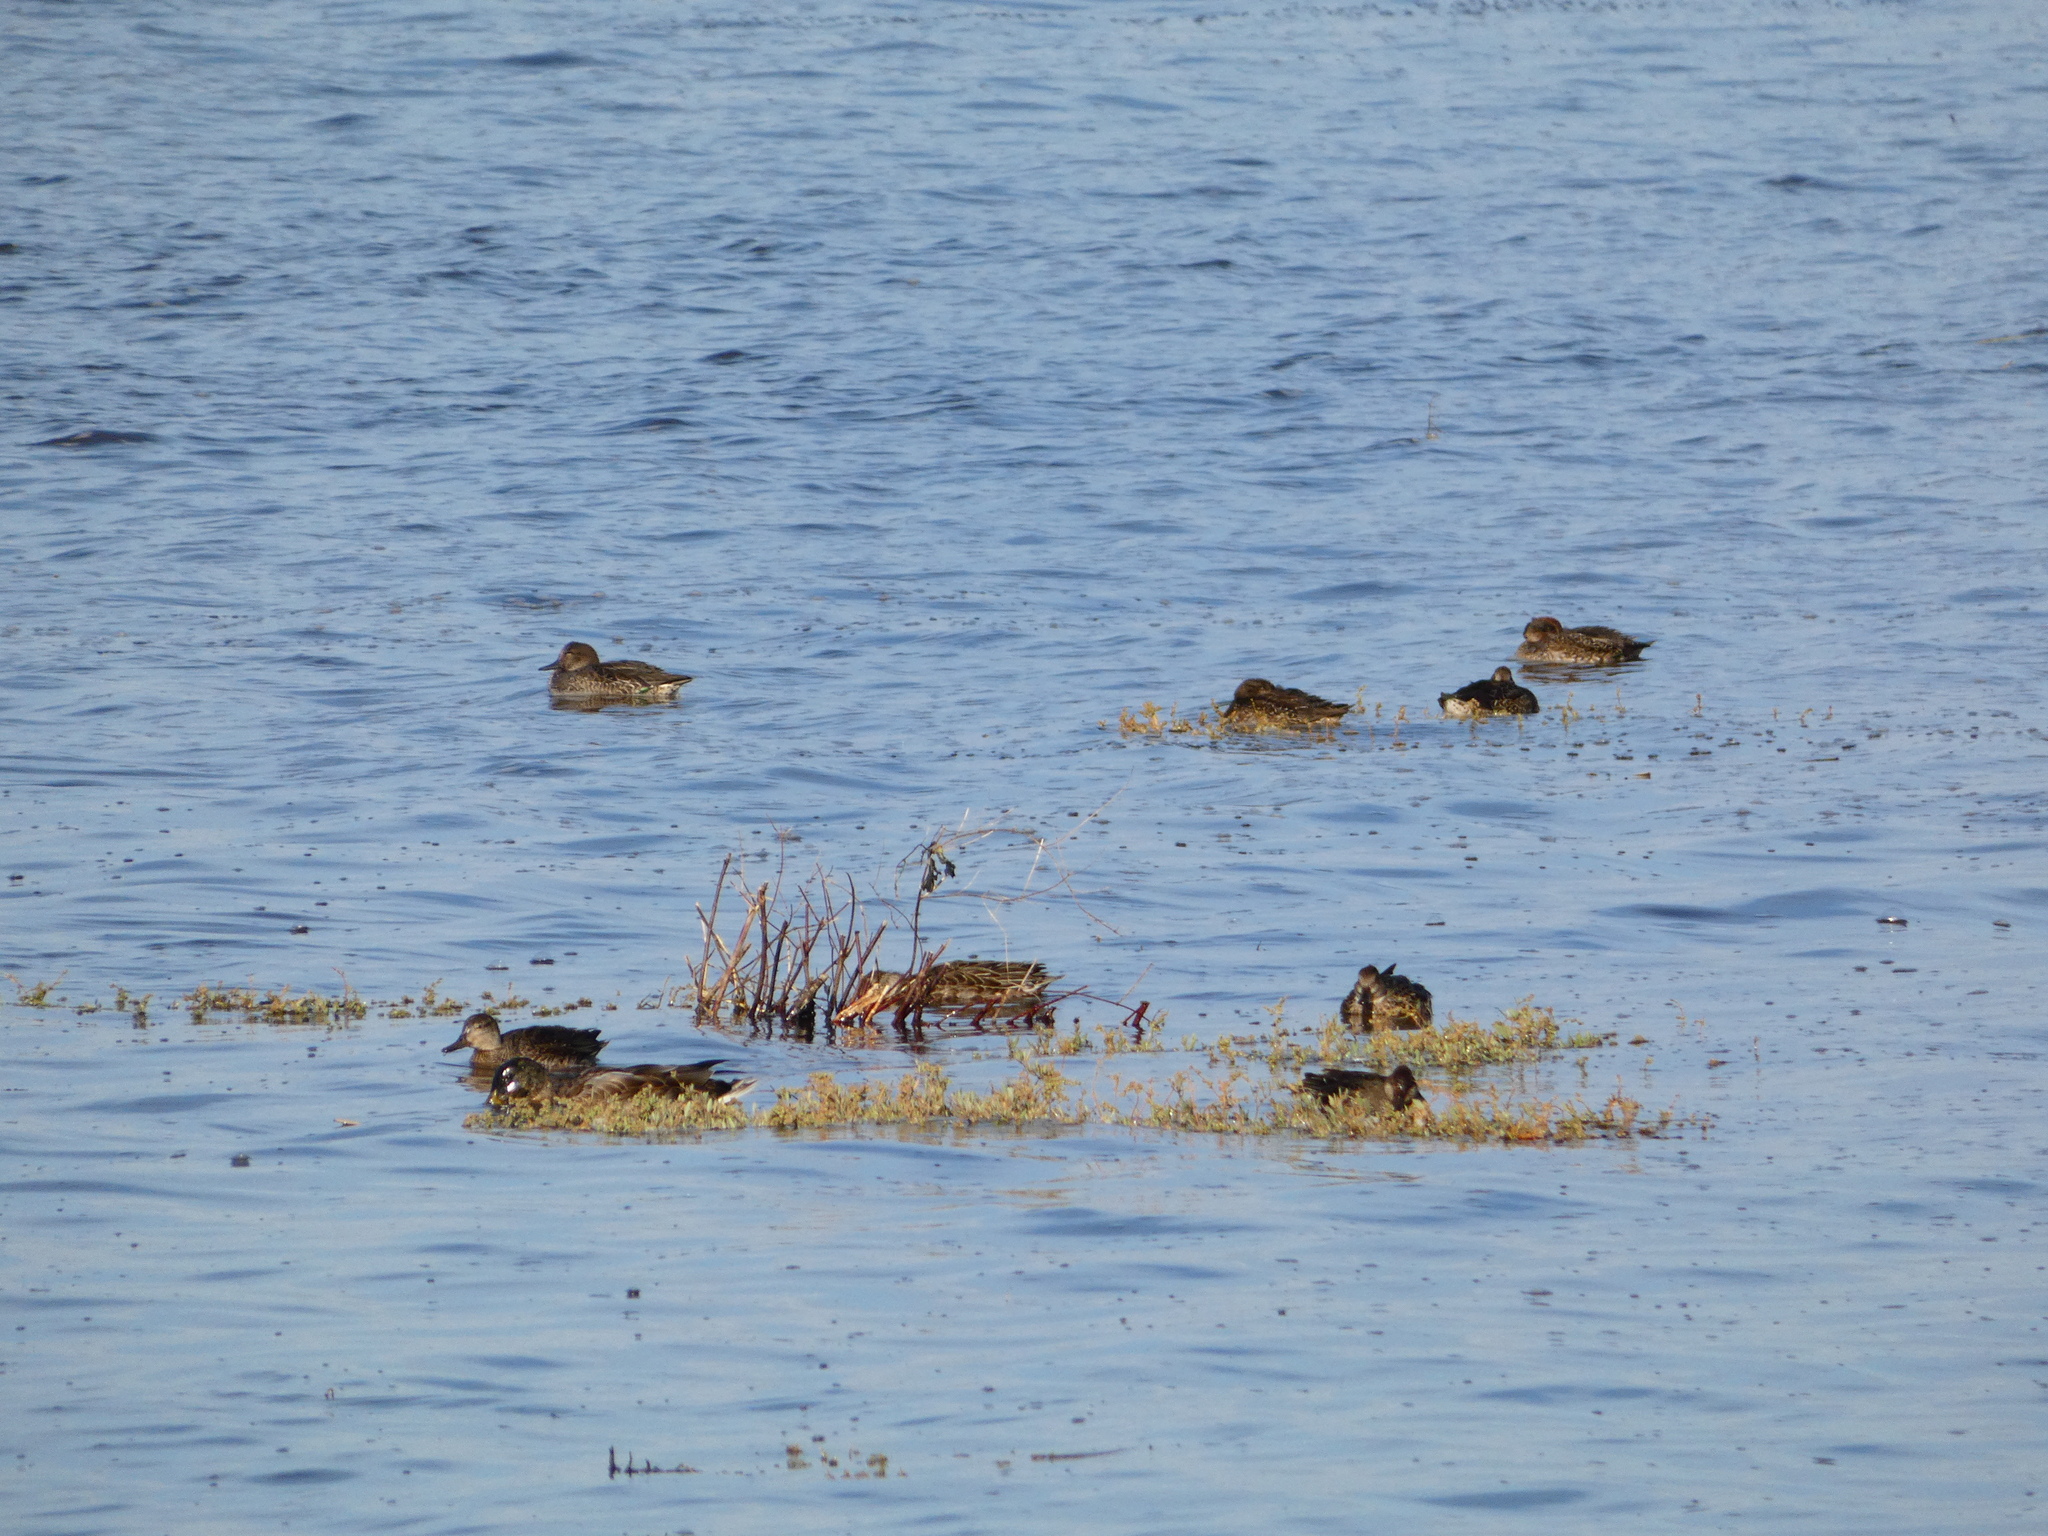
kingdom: Animalia
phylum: Chordata
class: Aves
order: Anseriformes
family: Anatidae
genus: Anas
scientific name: Anas crecca
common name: Eurasian teal
